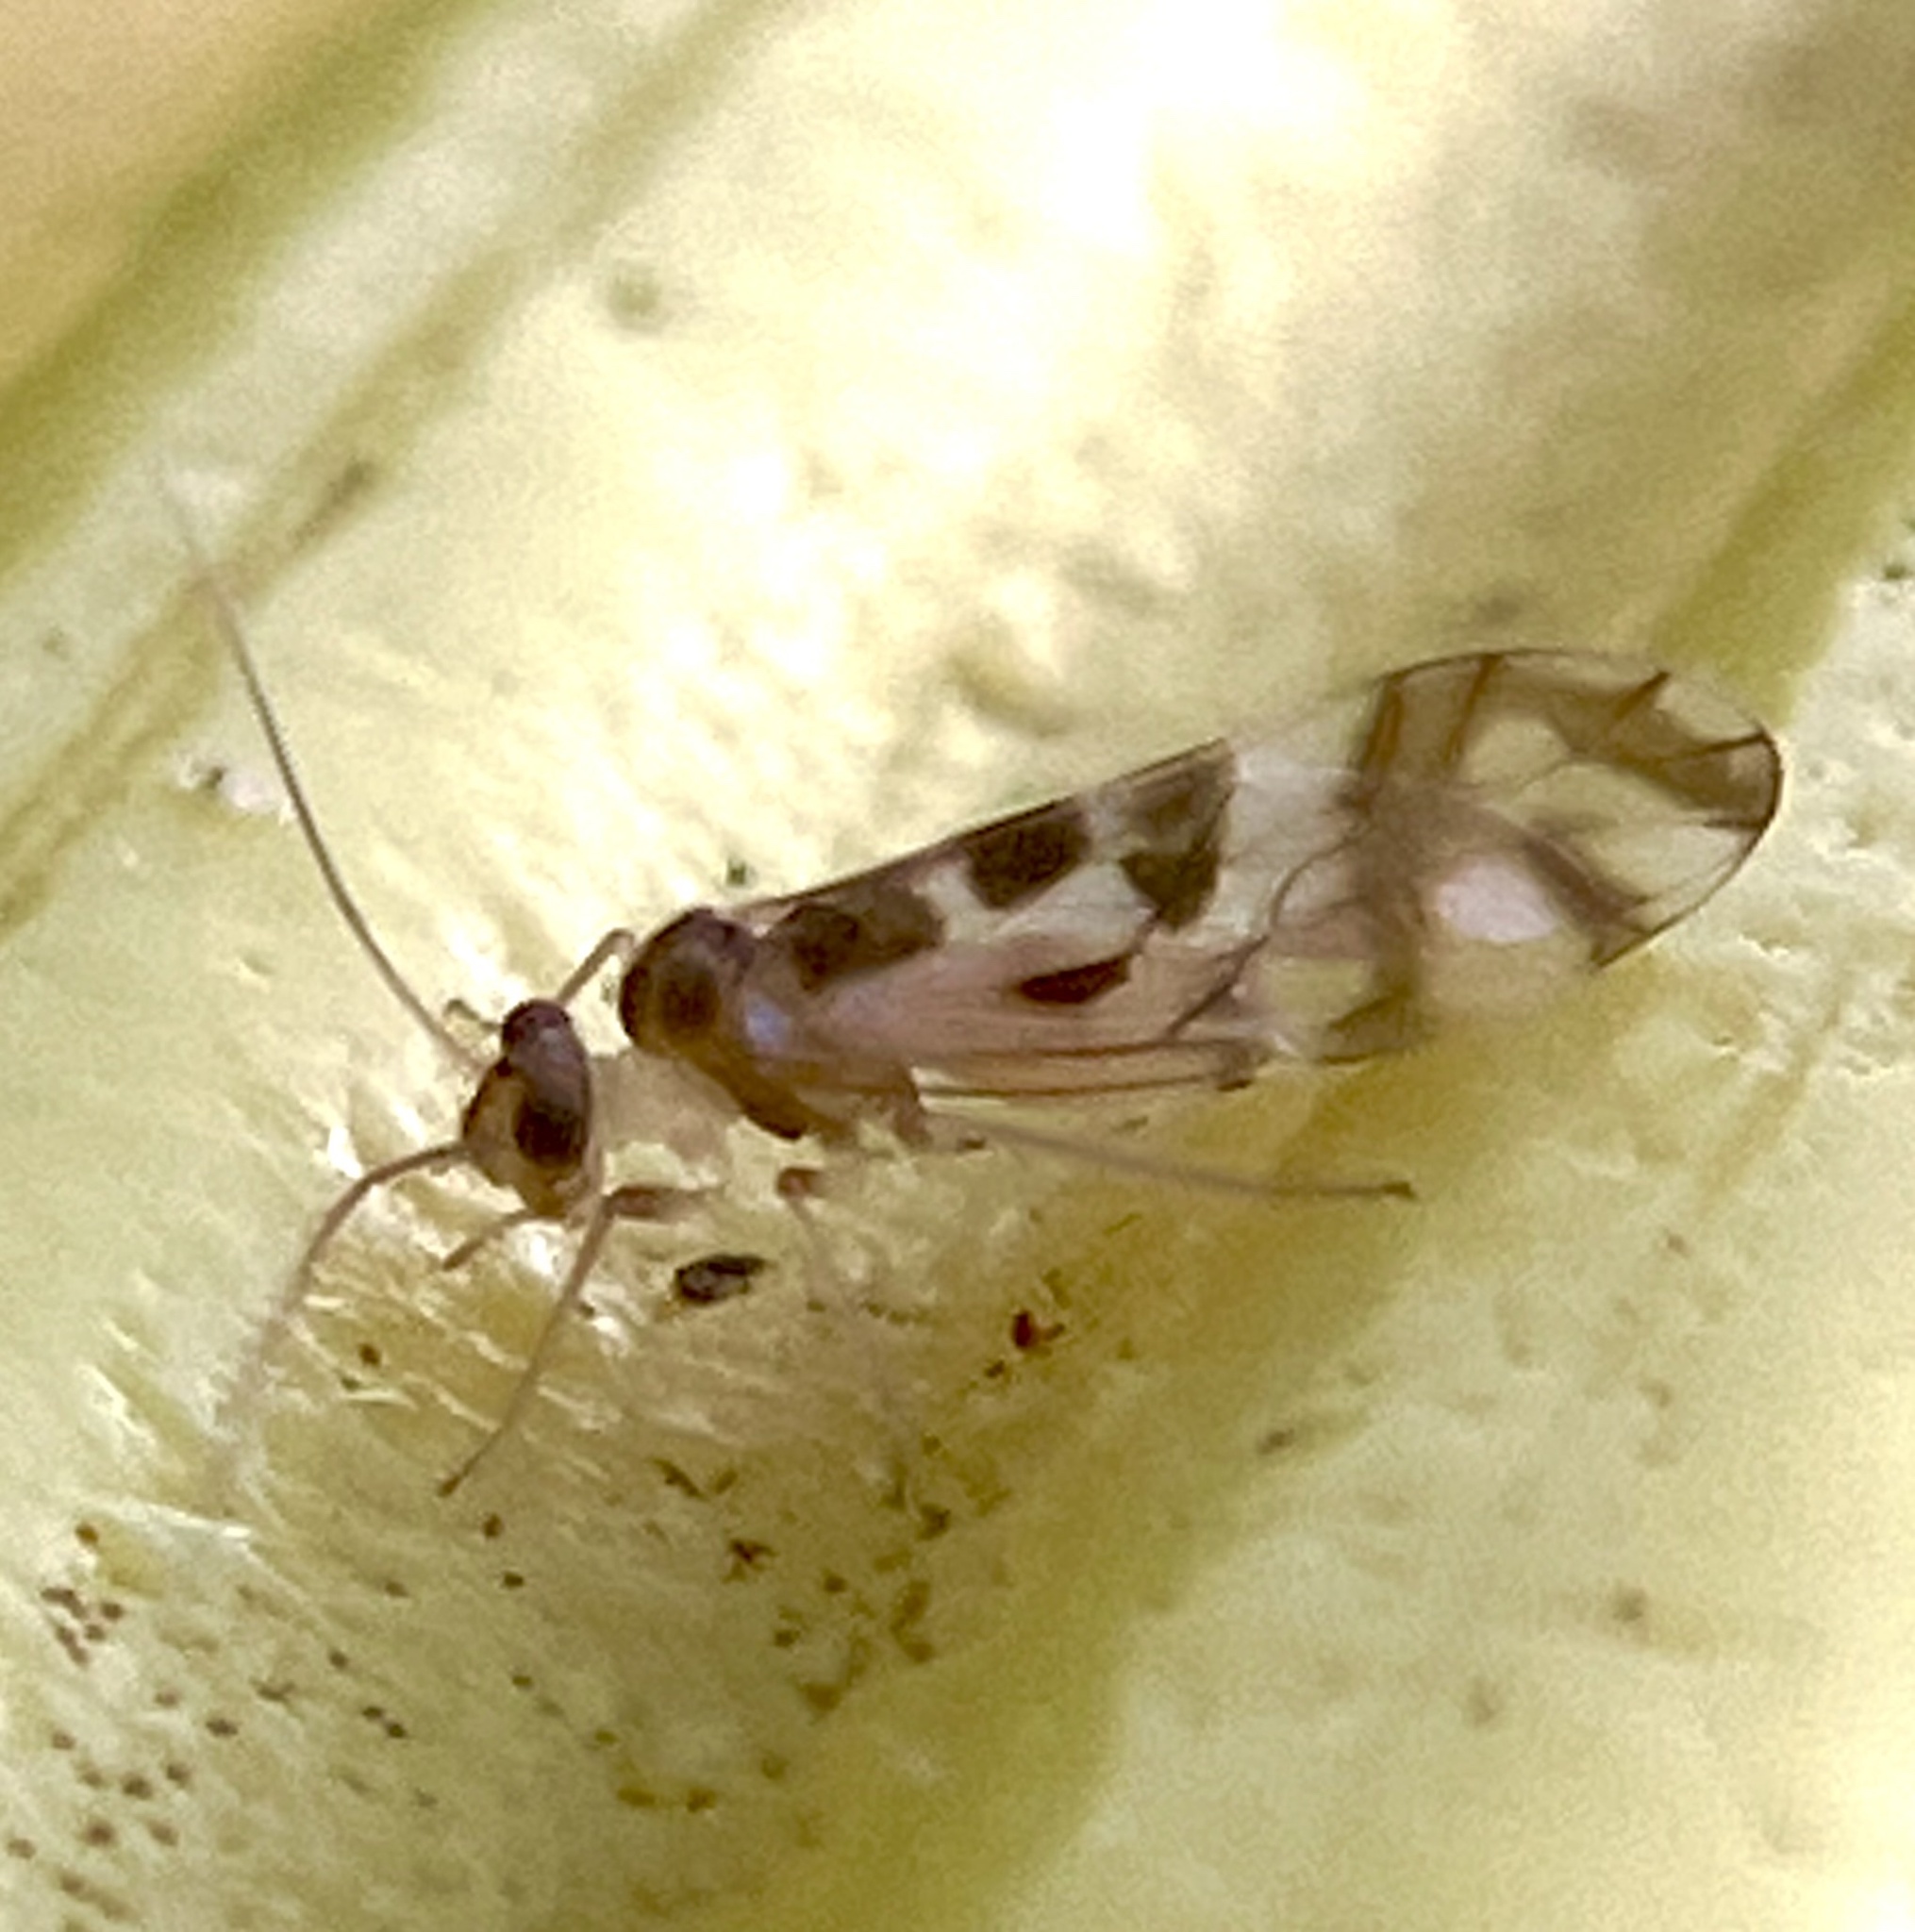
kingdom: Animalia
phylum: Arthropoda
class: Insecta
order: Psocodea
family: Stenopsocidae
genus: Graphopsocus
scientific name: Graphopsocus cruciatus
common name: Lizard bark louse
